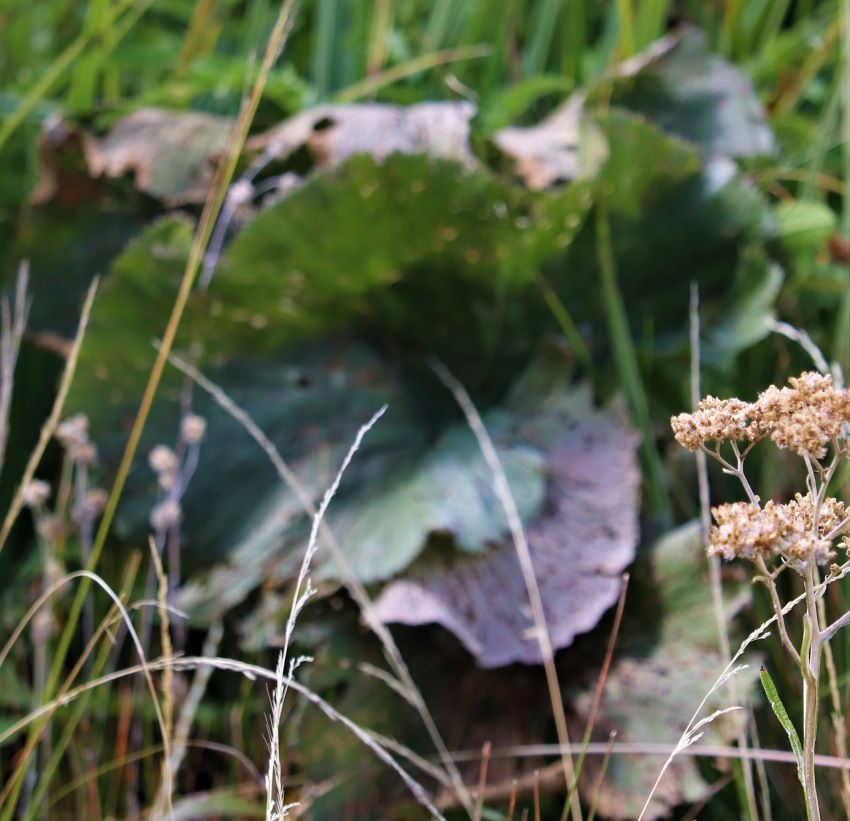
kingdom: Plantae
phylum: Tracheophyta
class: Magnoliopsida
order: Gunnerales
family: Gunneraceae
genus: Gunnera
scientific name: Gunnera perpensa
